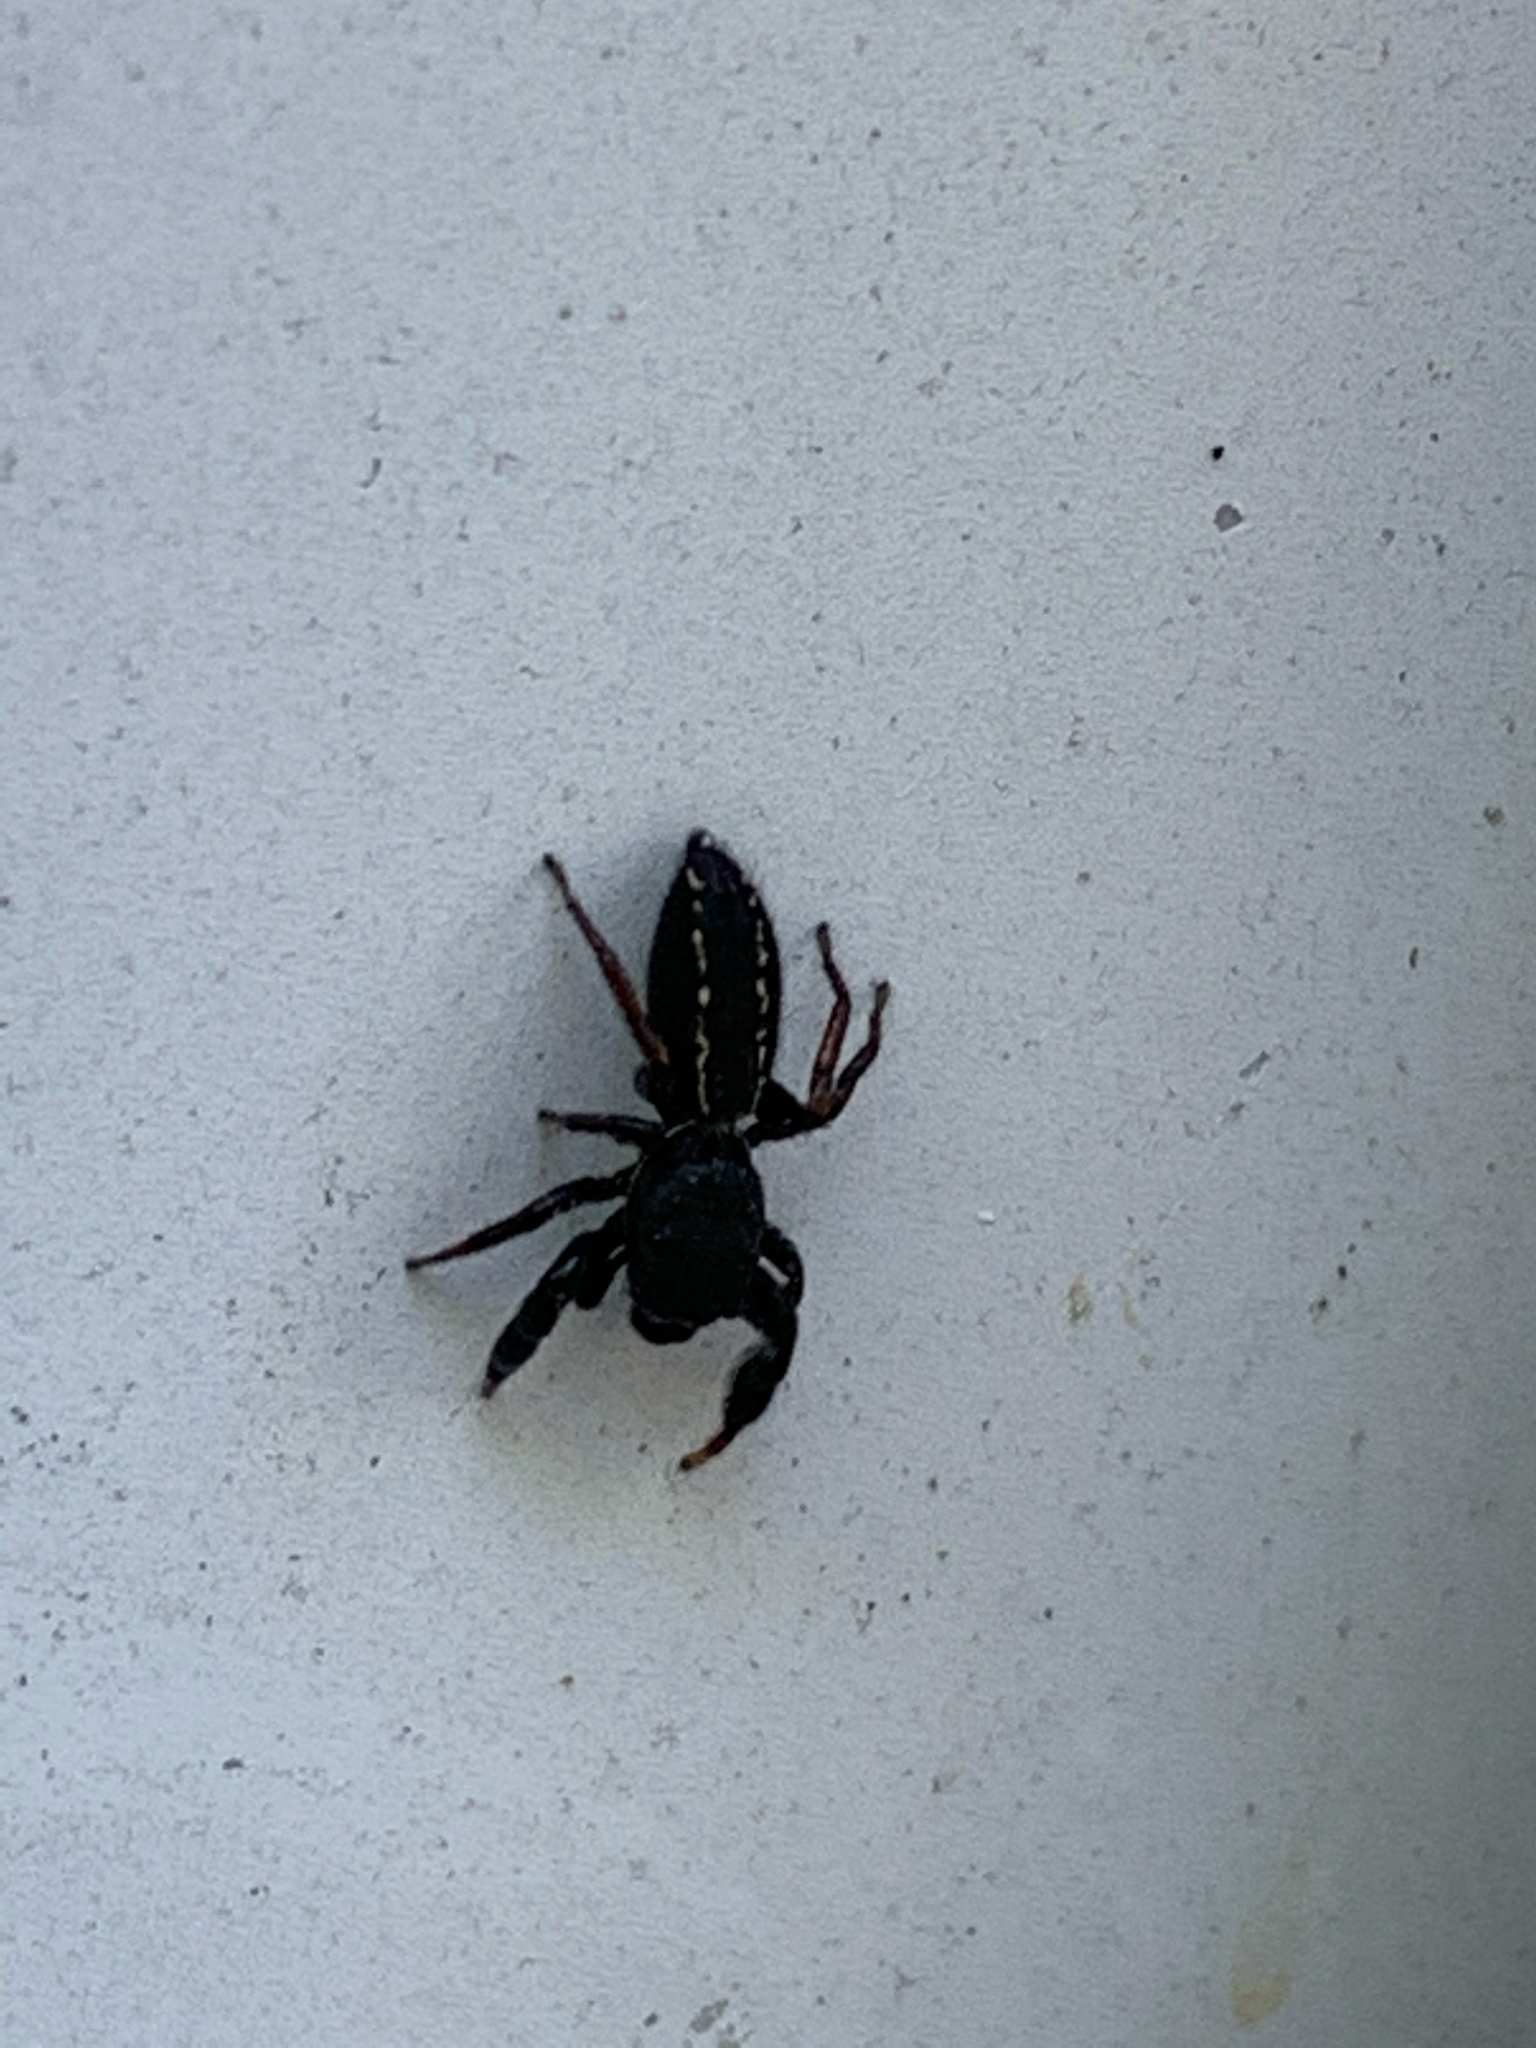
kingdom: Animalia
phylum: Arthropoda
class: Arachnida
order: Araneae
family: Salticidae
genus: Metacyrba
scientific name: Metacyrba taeniola
